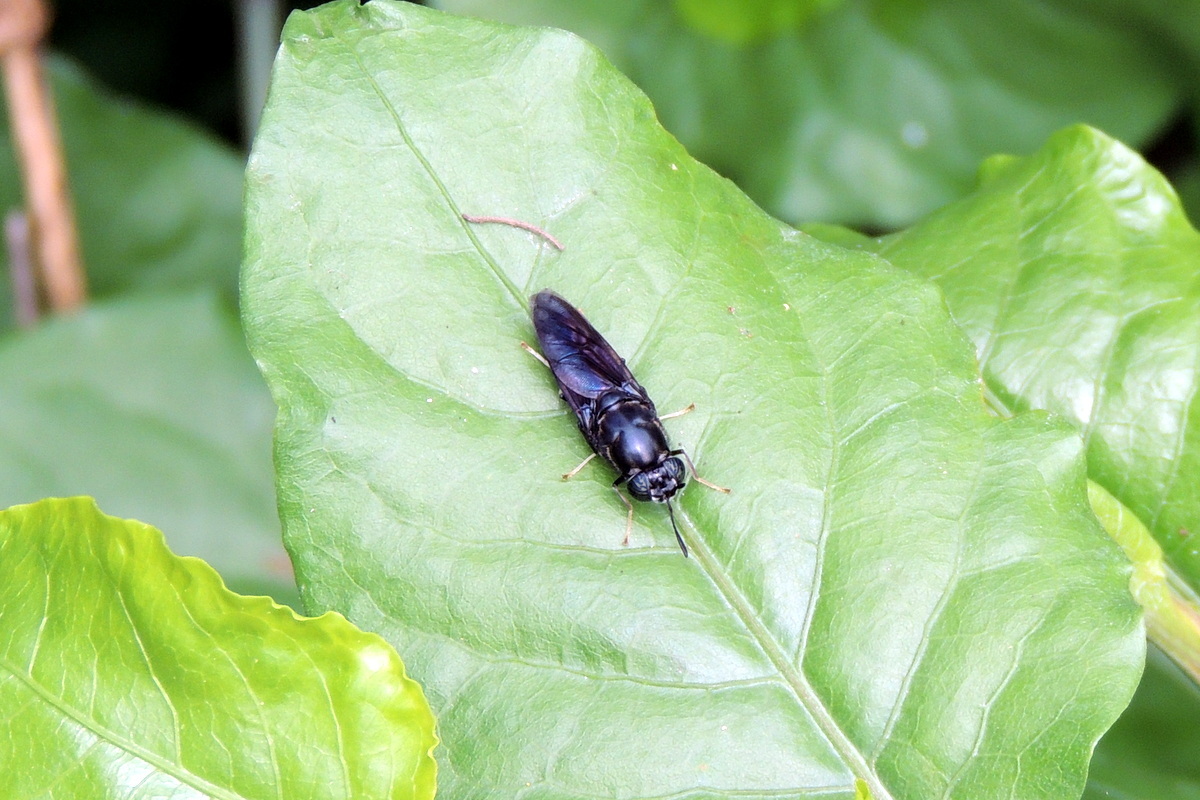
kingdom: Animalia
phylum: Arthropoda
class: Insecta
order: Diptera
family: Stratiomyidae
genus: Hermetia
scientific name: Hermetia illucens
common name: Black soldier fly
